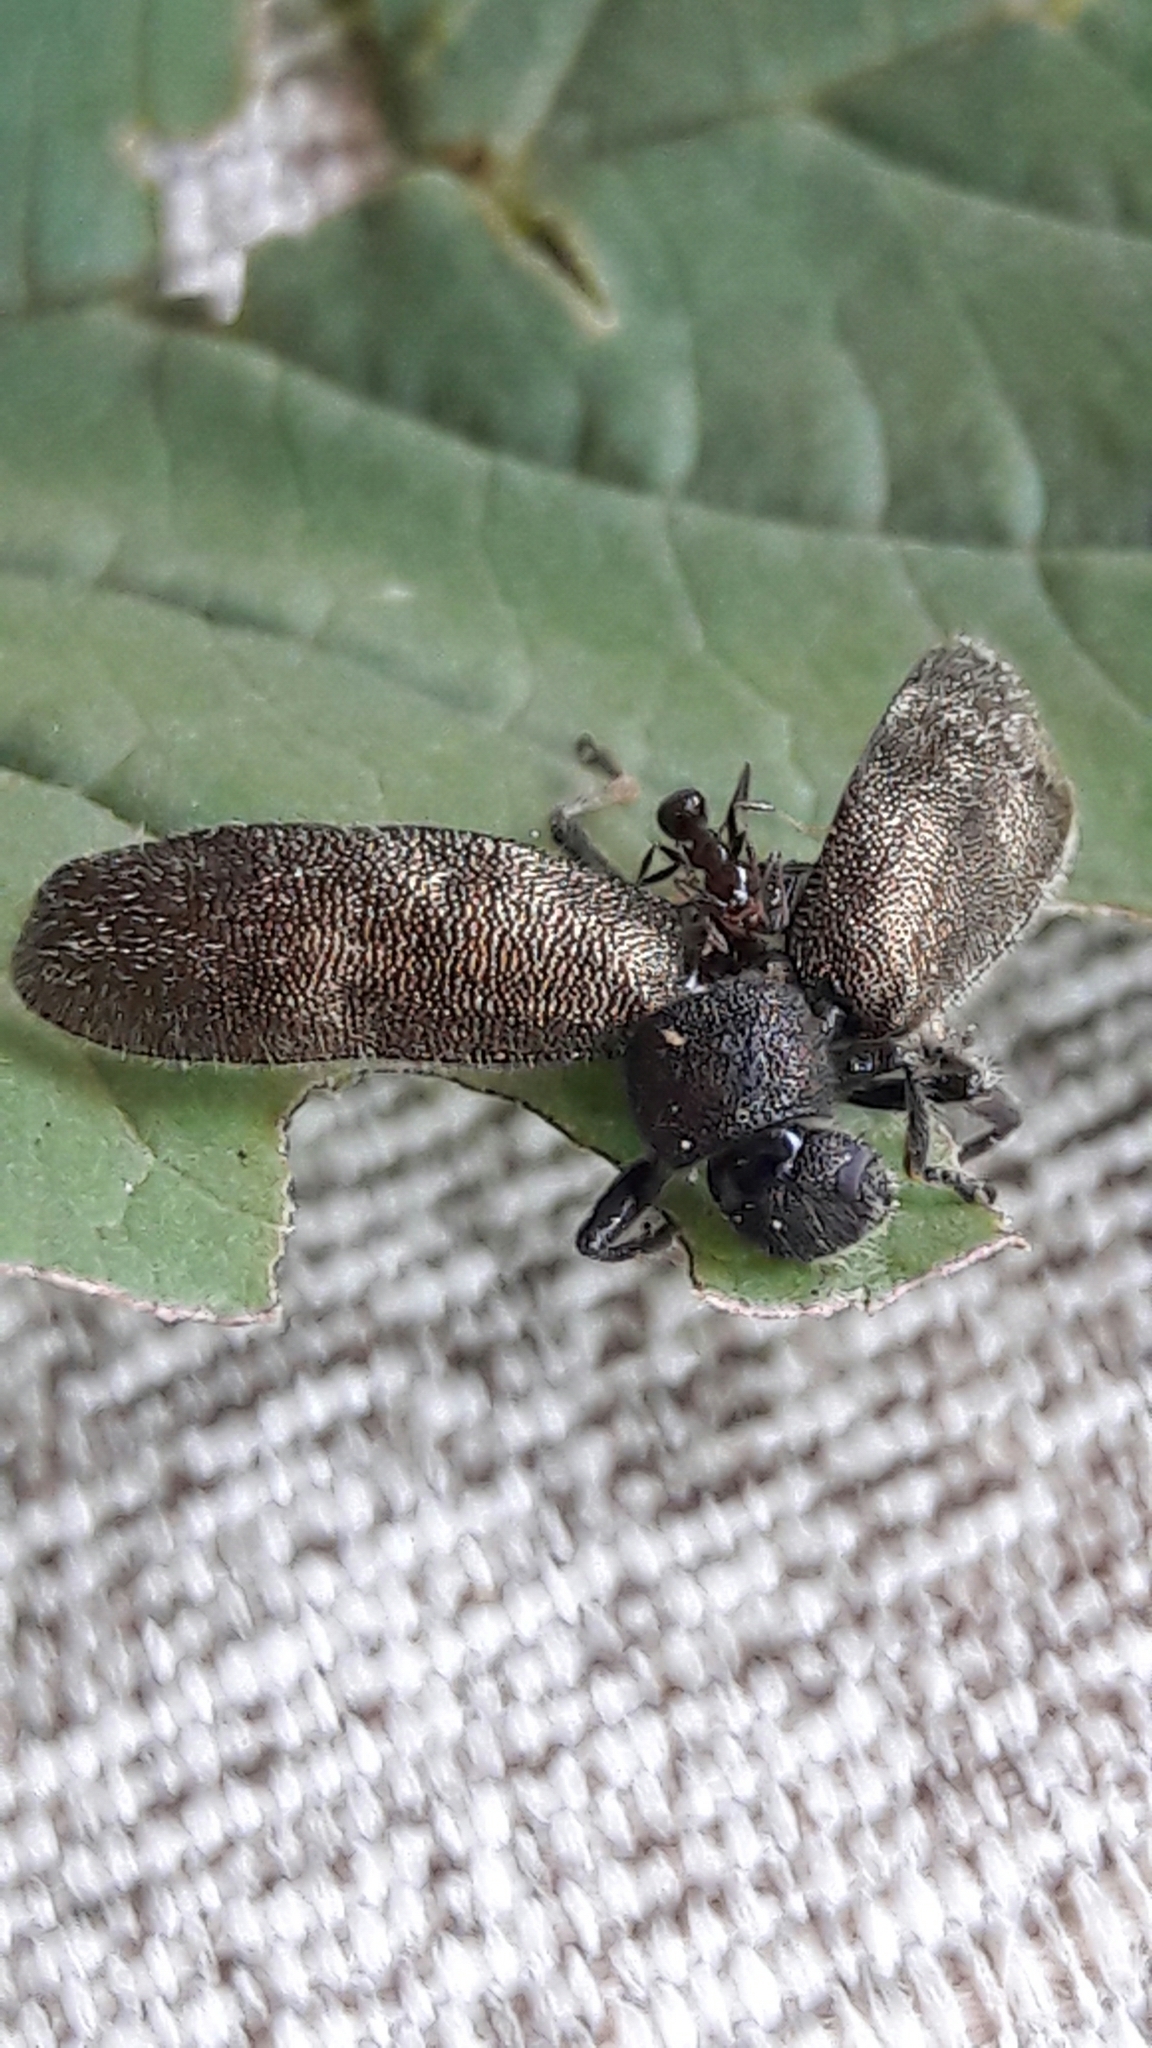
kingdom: Animalia
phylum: Arthropoda
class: Insecta
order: Coleoptera
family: Tenebrionidae
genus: Lagria
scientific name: Lagria villosa
